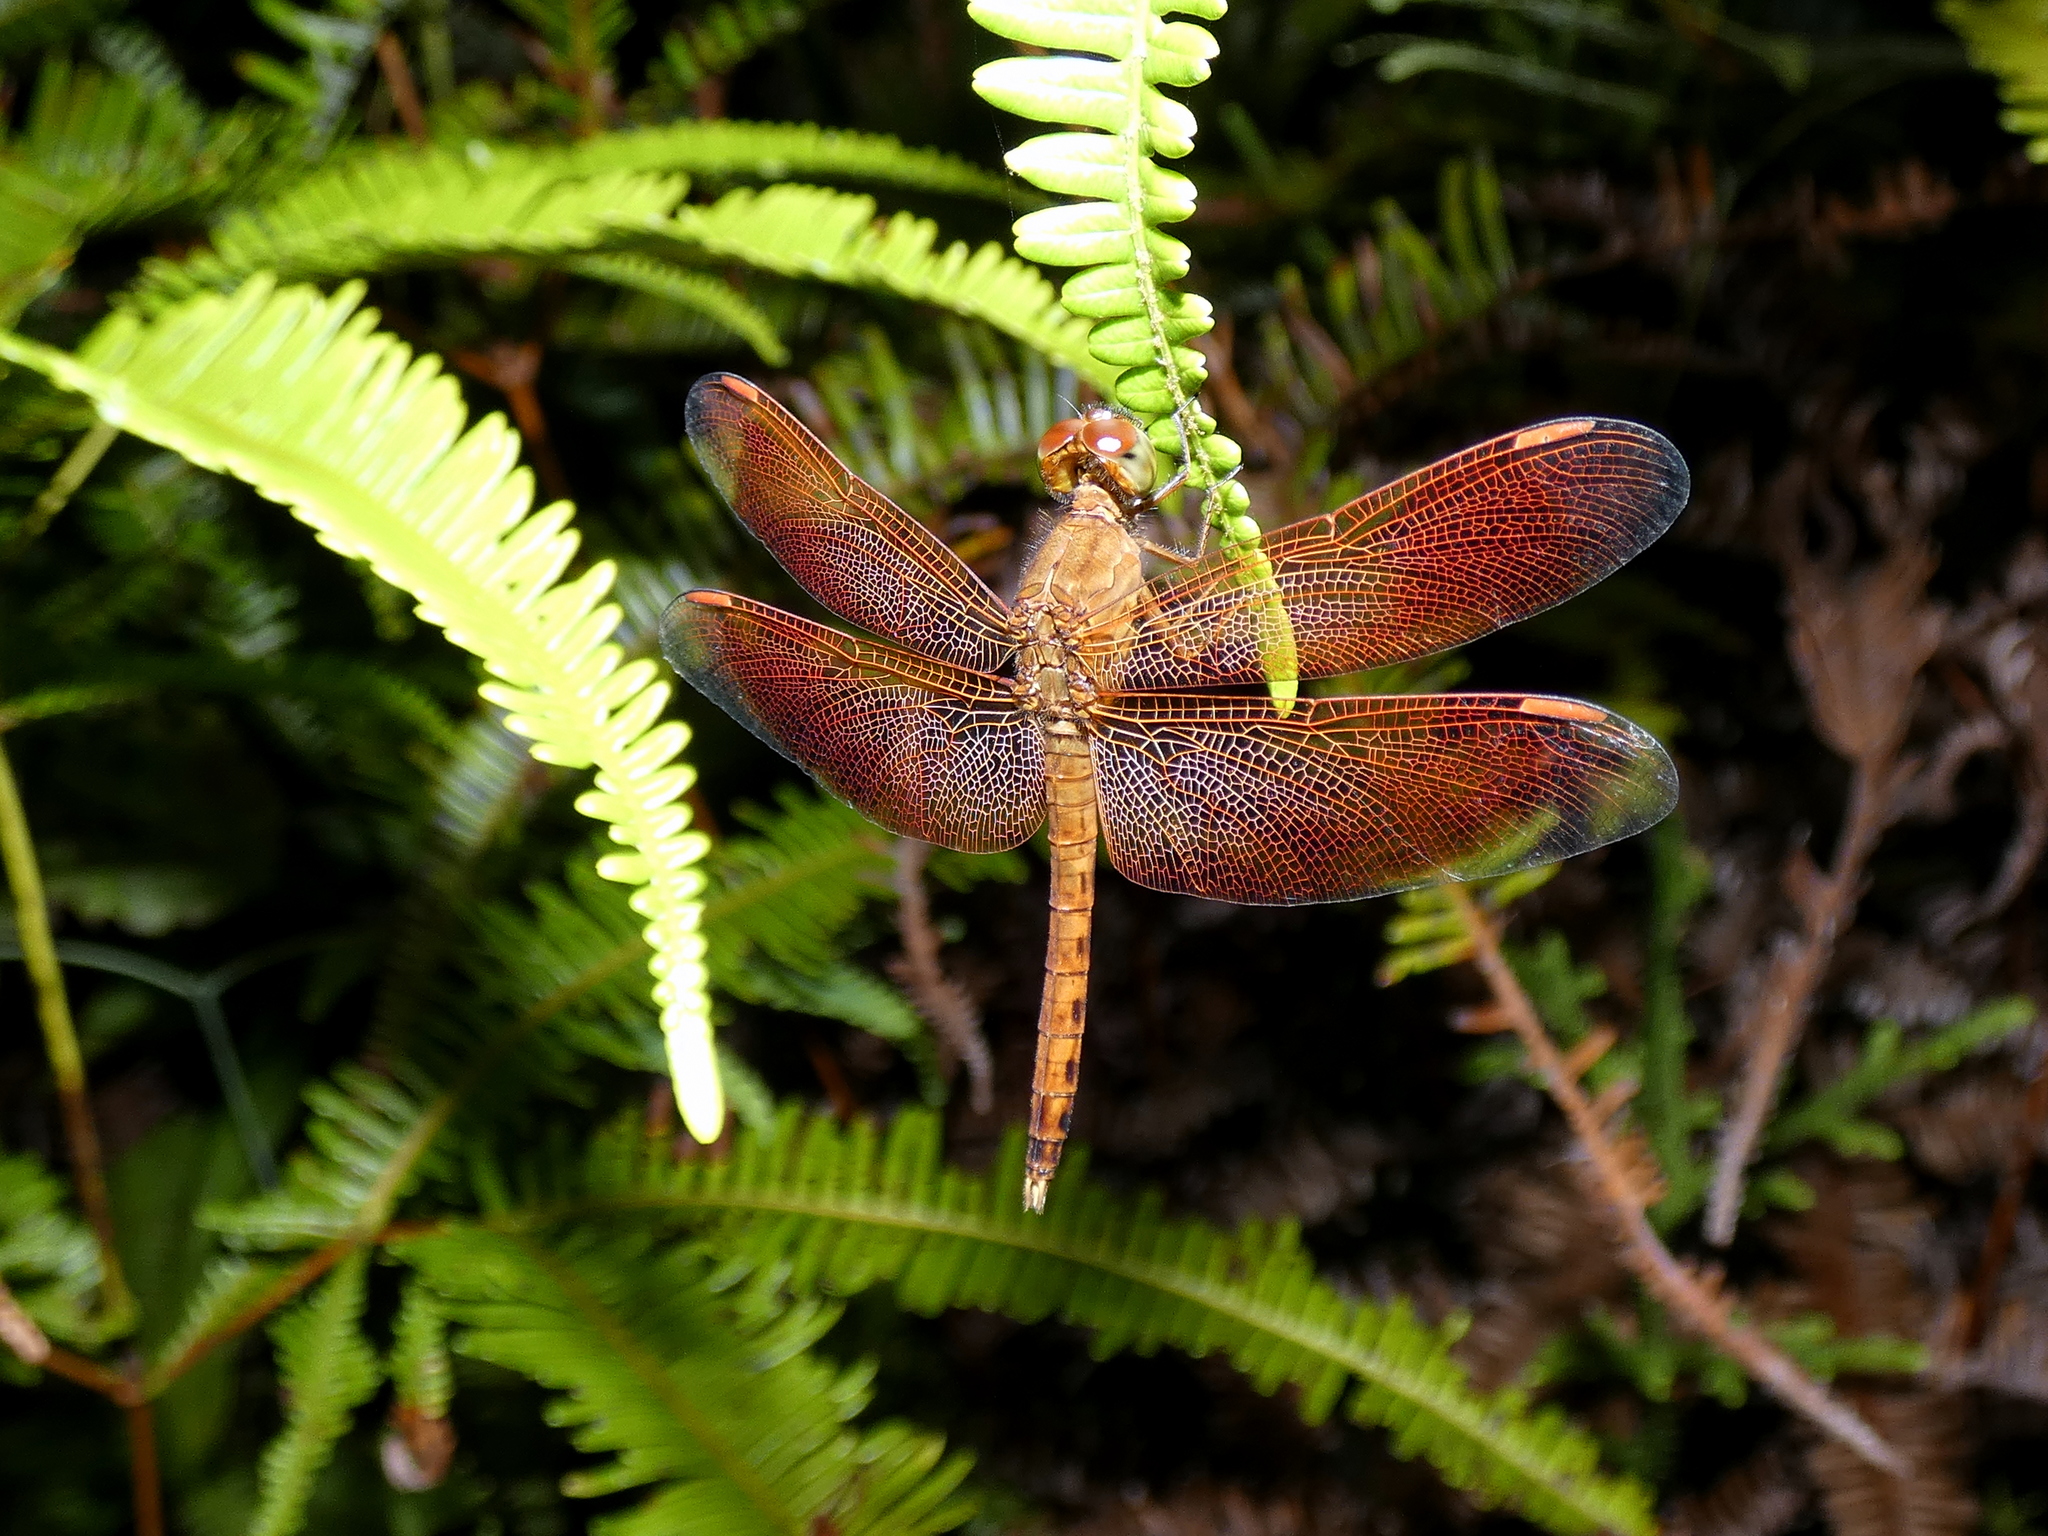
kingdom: Animalia
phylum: Arthropoda
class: Insecta
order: Odonata
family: Libellulidae
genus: Neurothemis
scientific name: Neurothemis fluctuans
